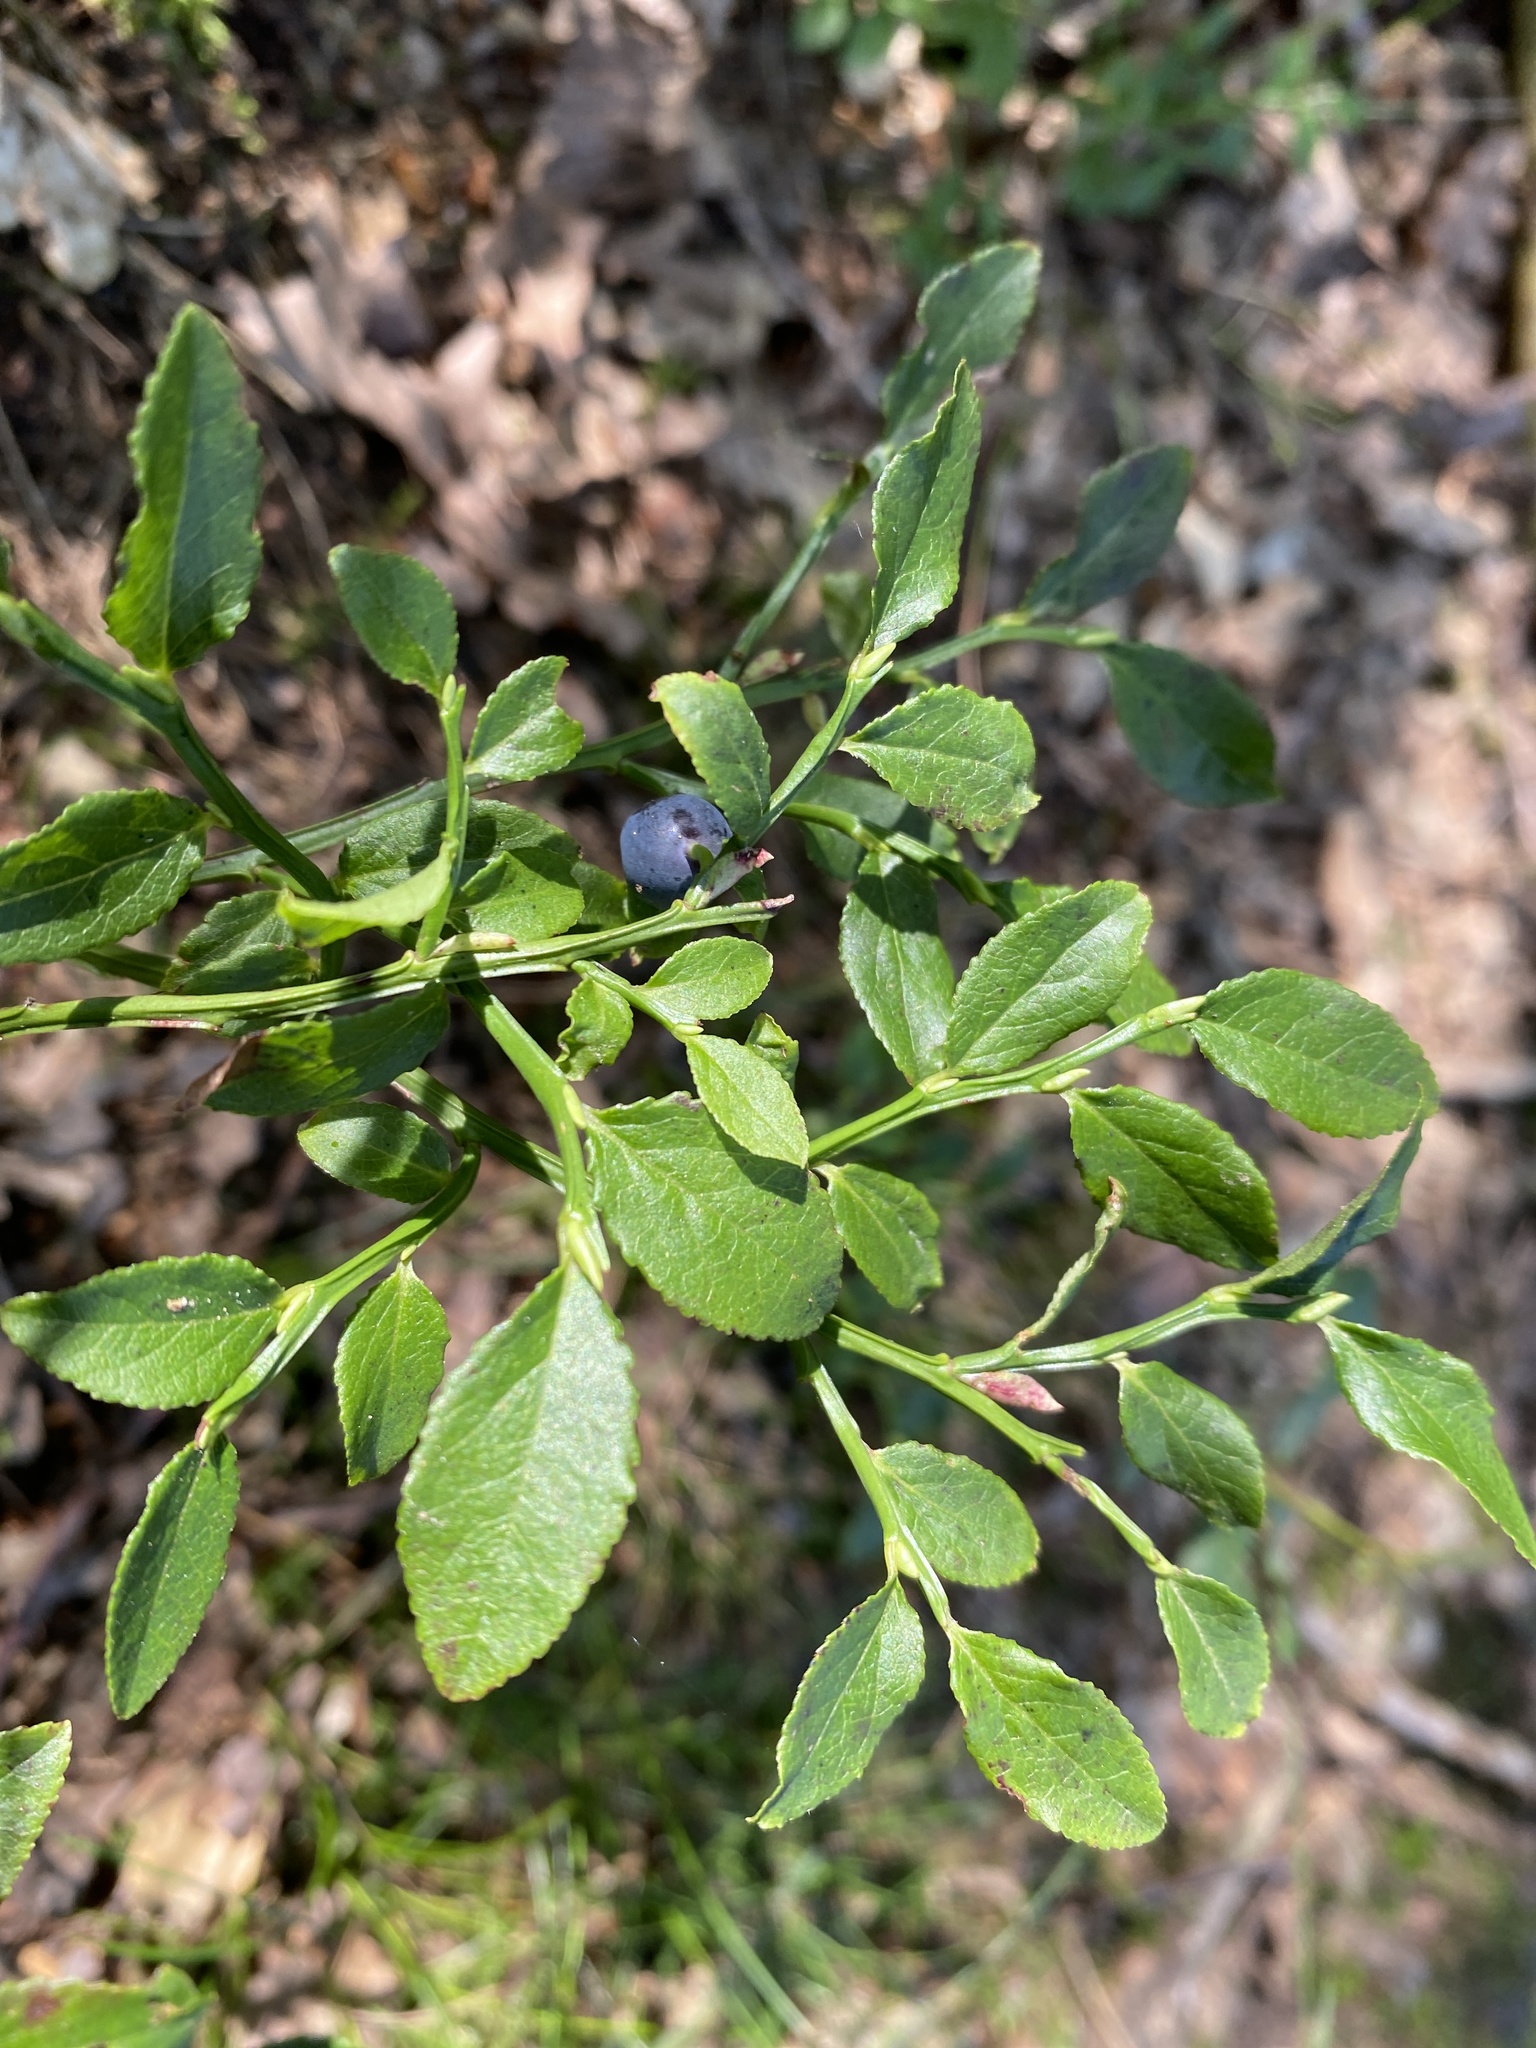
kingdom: Plantae
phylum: Tracheophyta
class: Magnoliopsida
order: Ericales
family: Ericaceae
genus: Vaccinium
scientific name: Vaccinium myrtillus
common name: Bilberry
